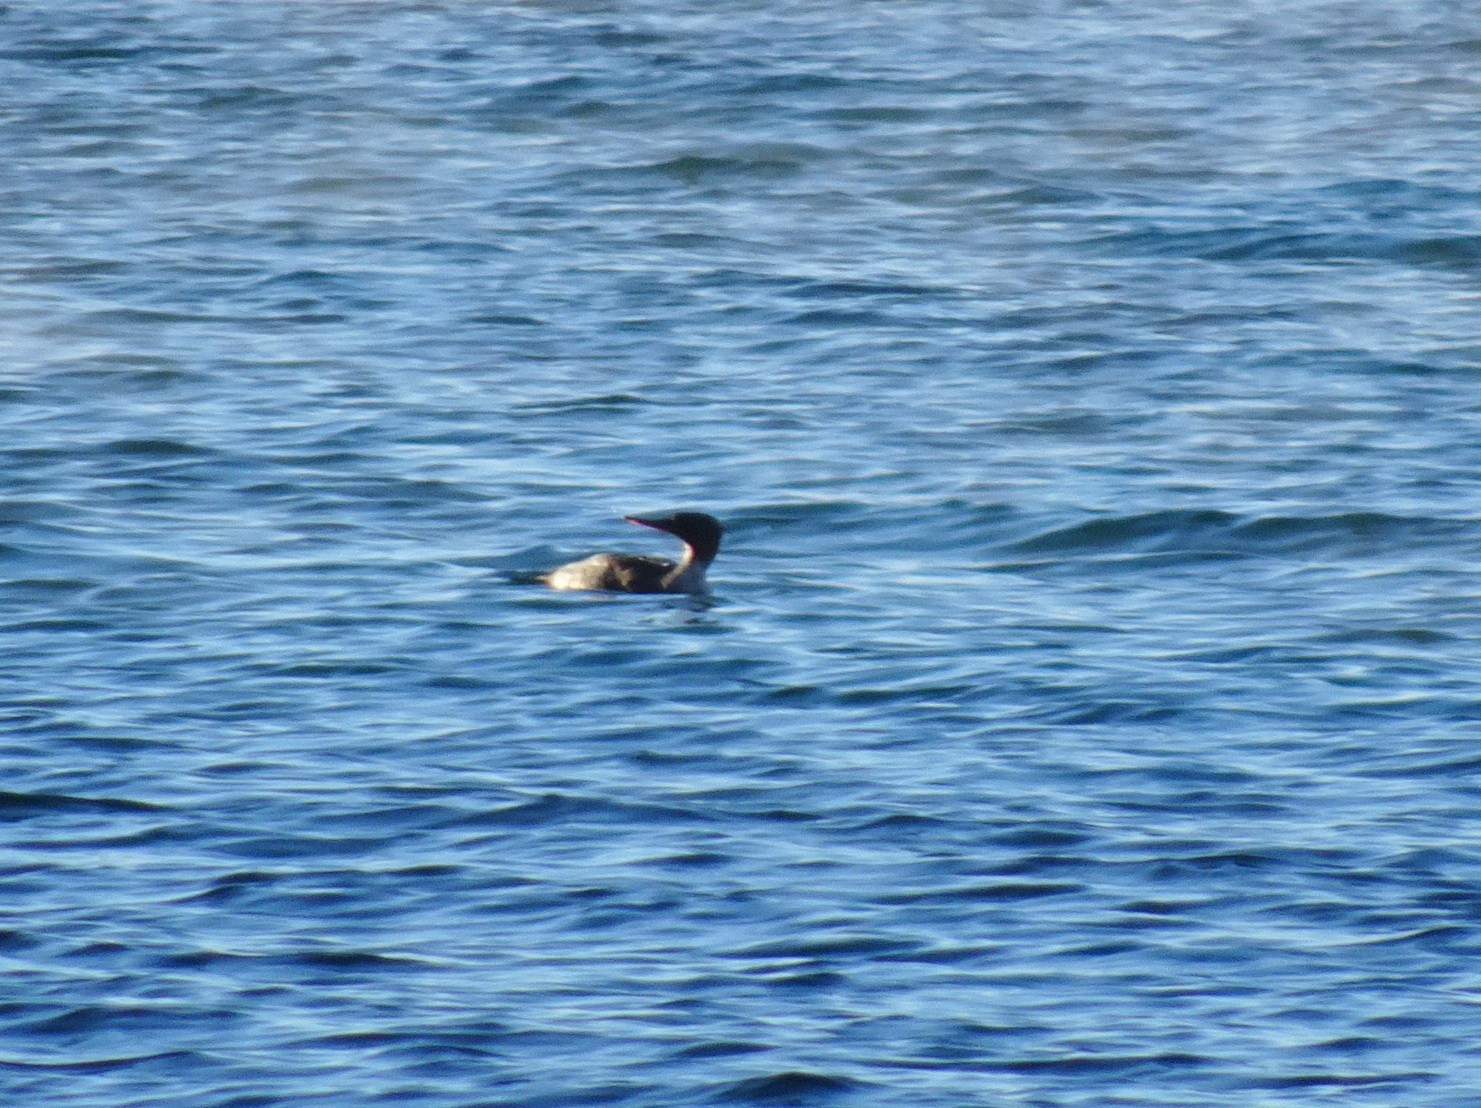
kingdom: Animalia
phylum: Chordata
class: Aves
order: Anseriformes
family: Anatidae
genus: Mergus
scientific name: Mergus serrator
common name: Red-breasted merganser
